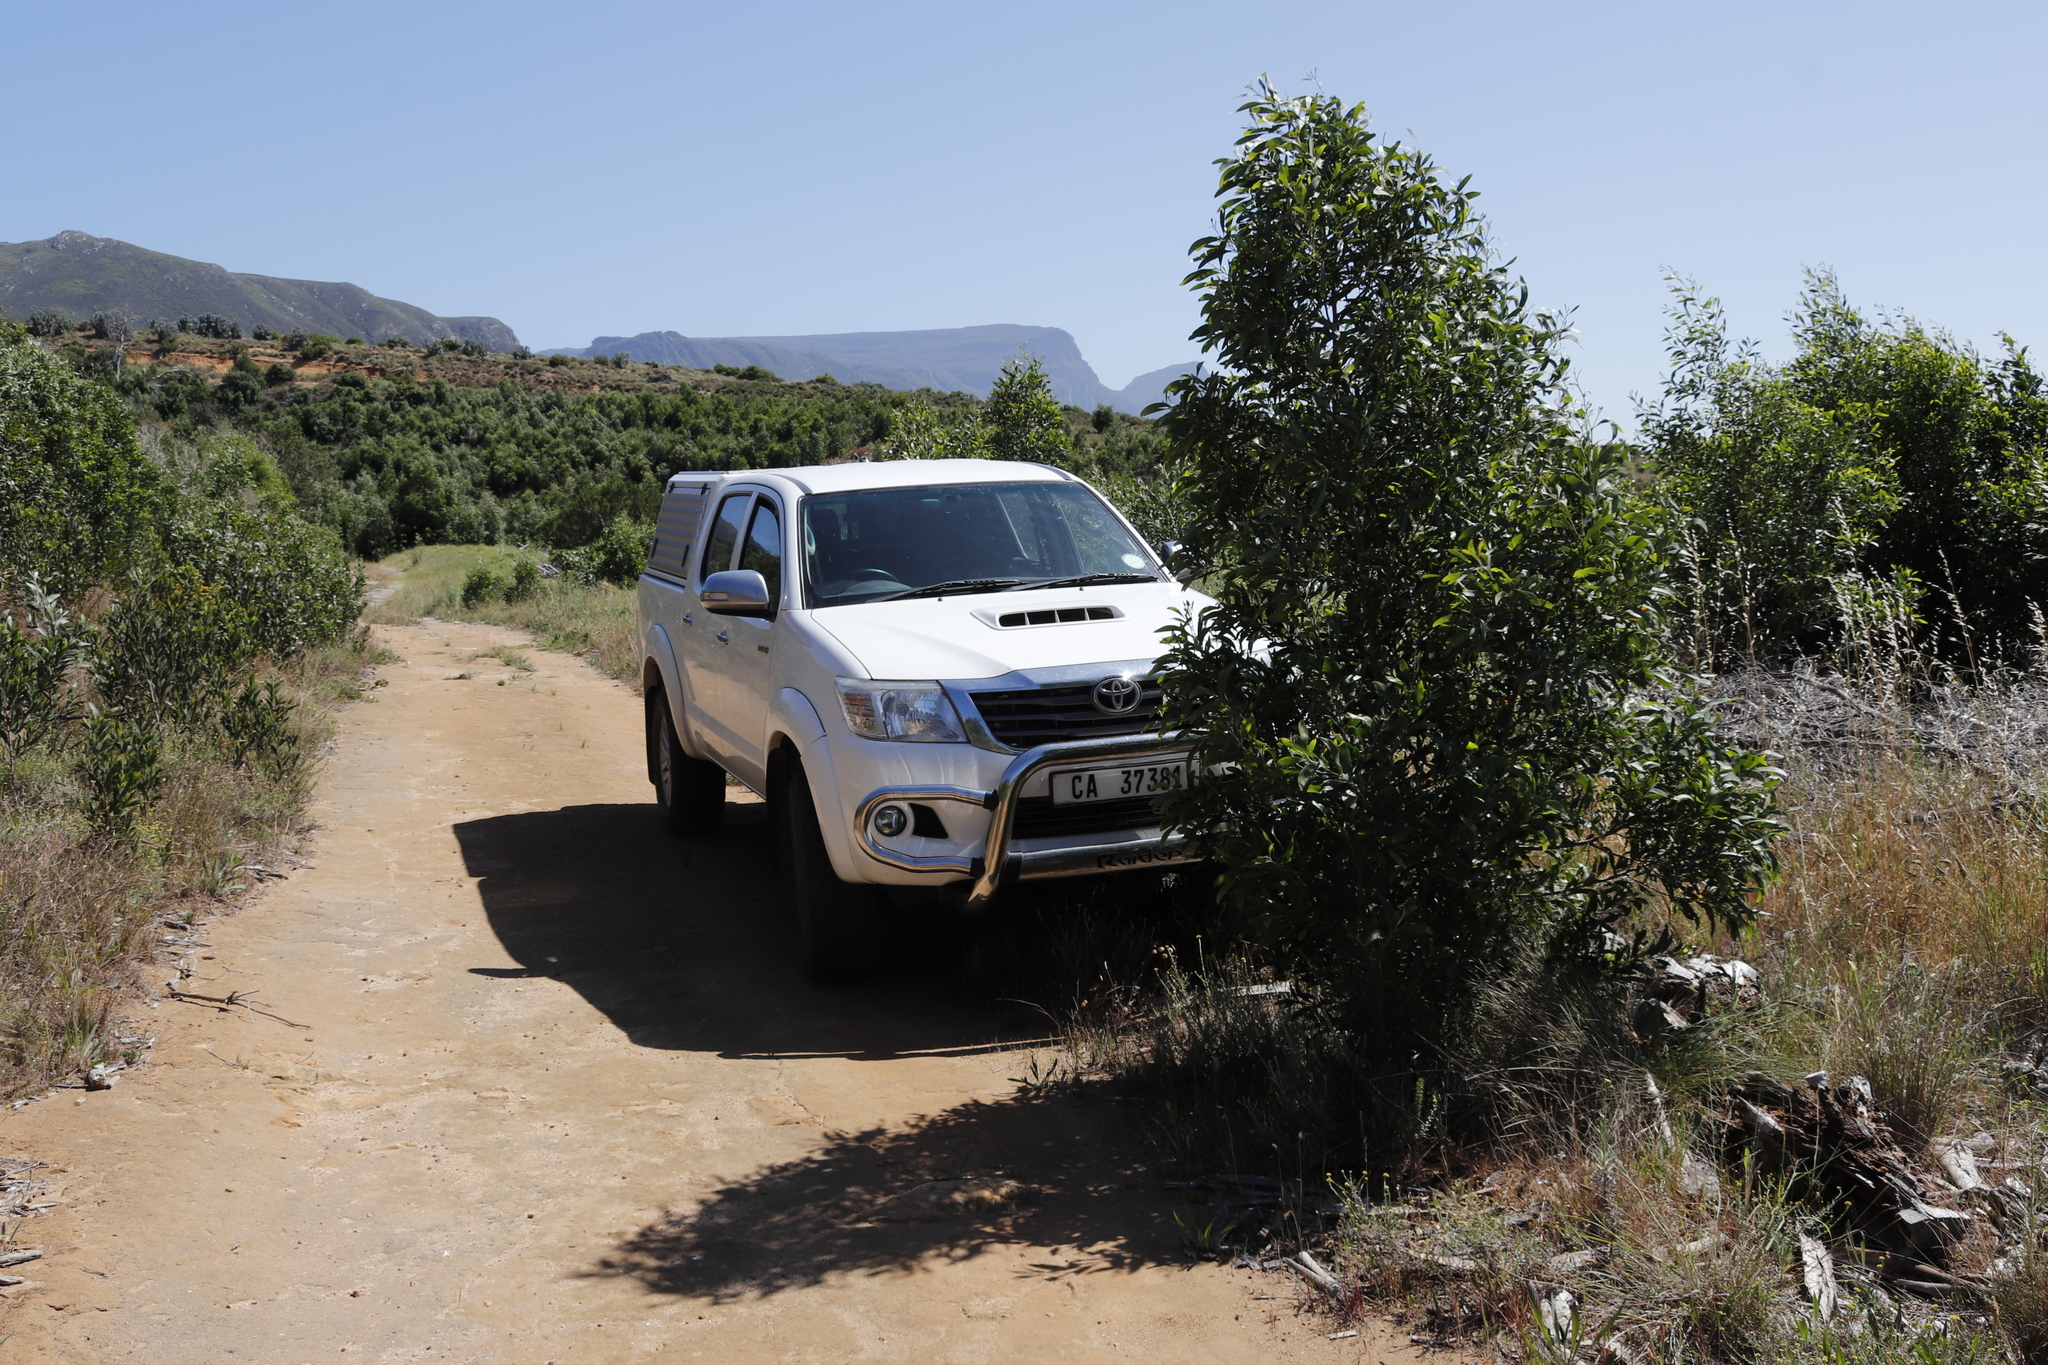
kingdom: Plantae
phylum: Tracheophyta
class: Magnoliopsida
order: Fabales
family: Fabaceae
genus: Acacia
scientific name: Acacia melanoxylon
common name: Blackwood
